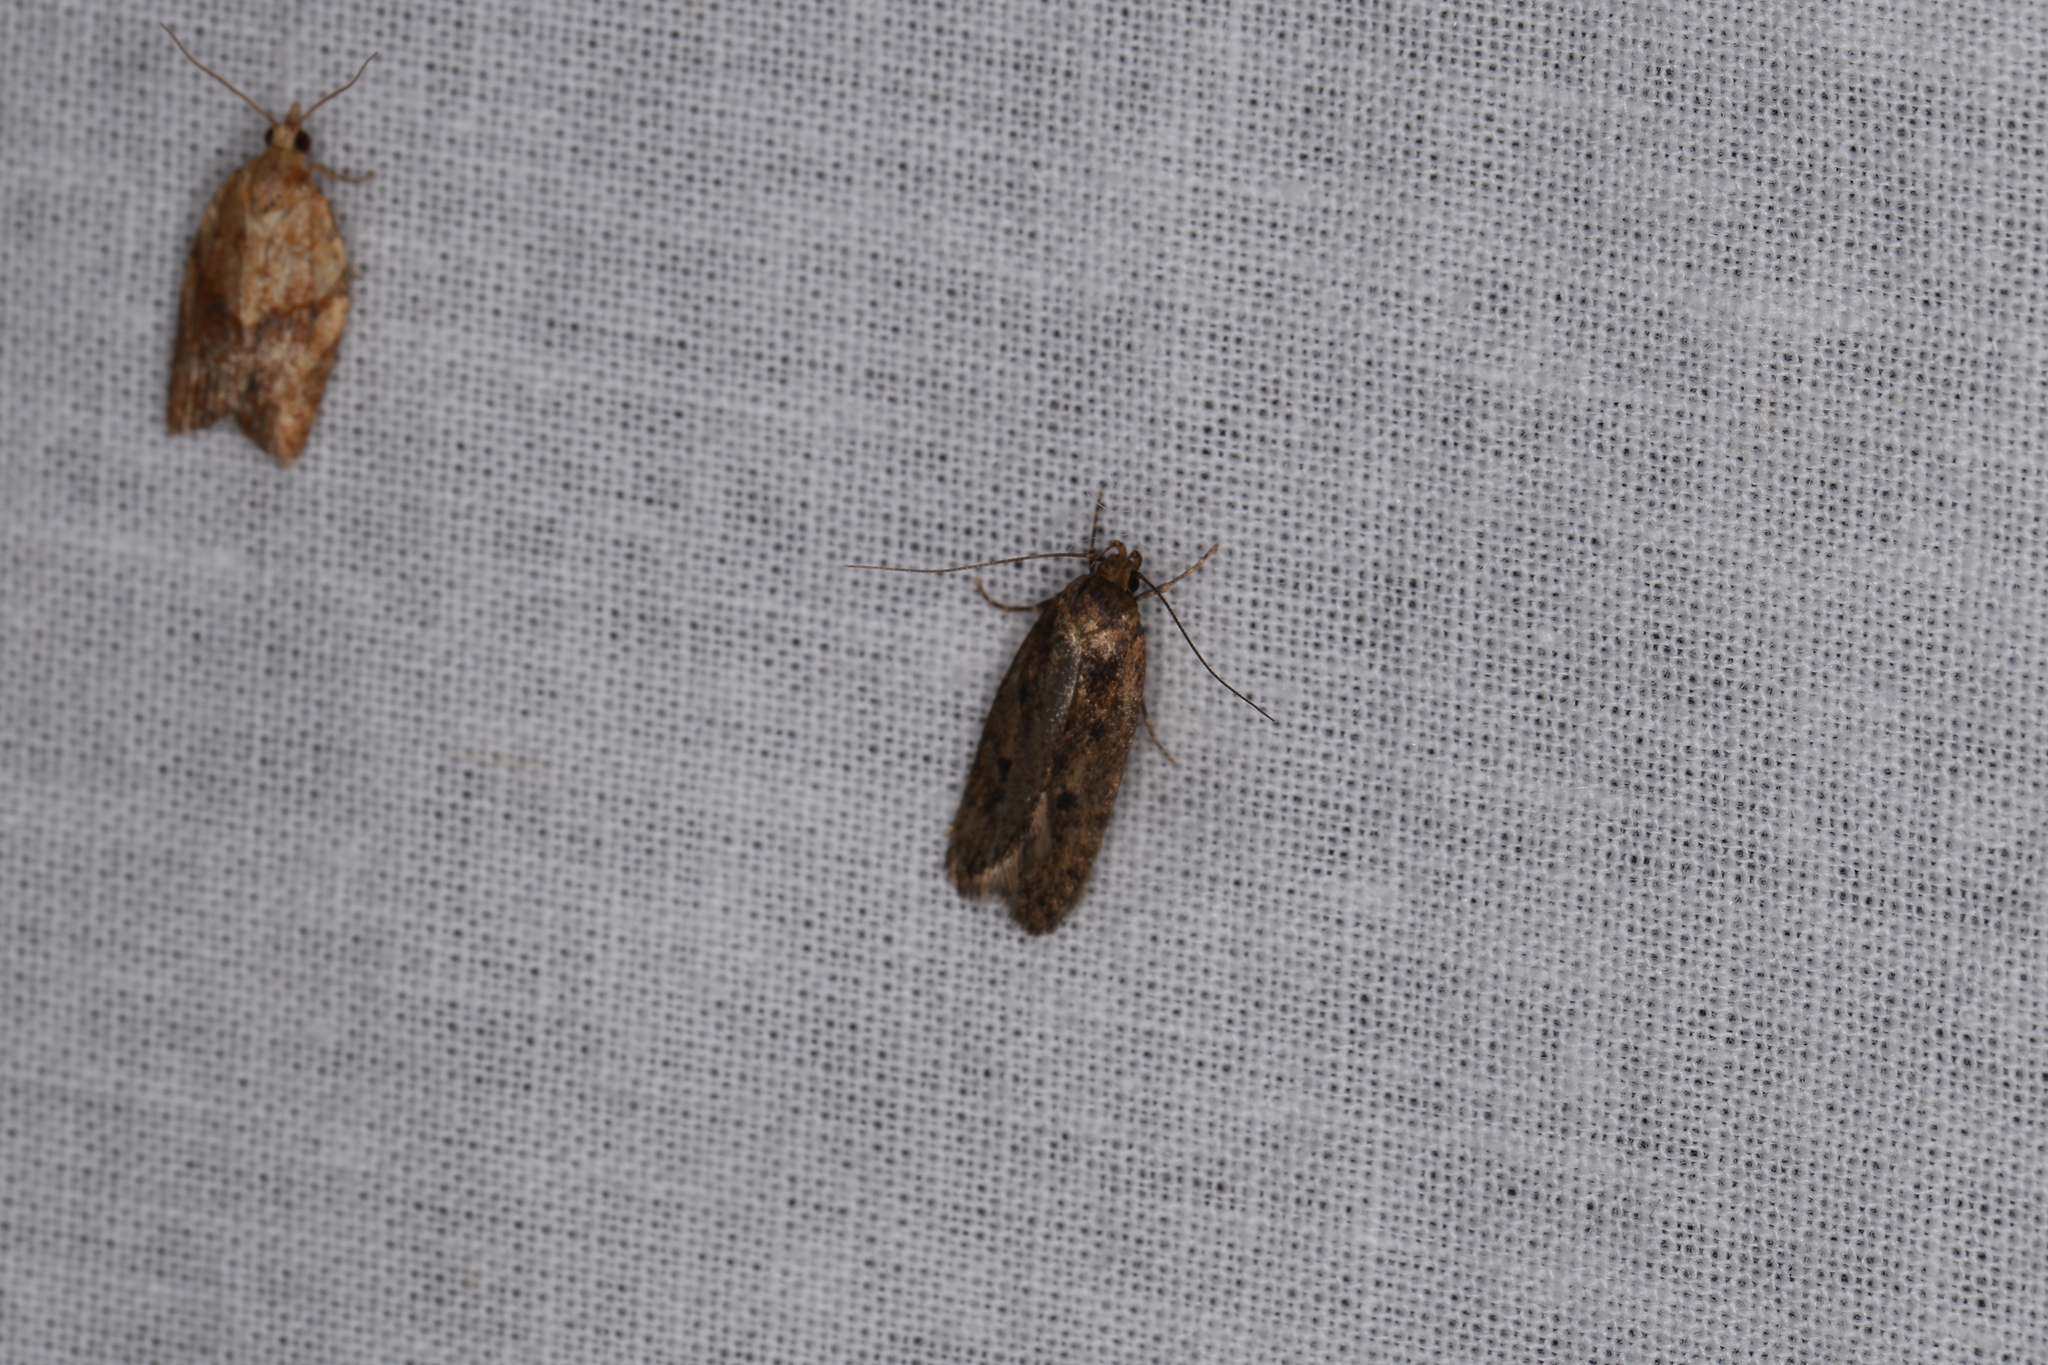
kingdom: Animalia
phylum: Arthropoda
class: Insecta
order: Lepidoptera
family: Oecophoridae
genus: Hofmannophila
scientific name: Hofmannophila pseudospretella
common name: Brown house moth
